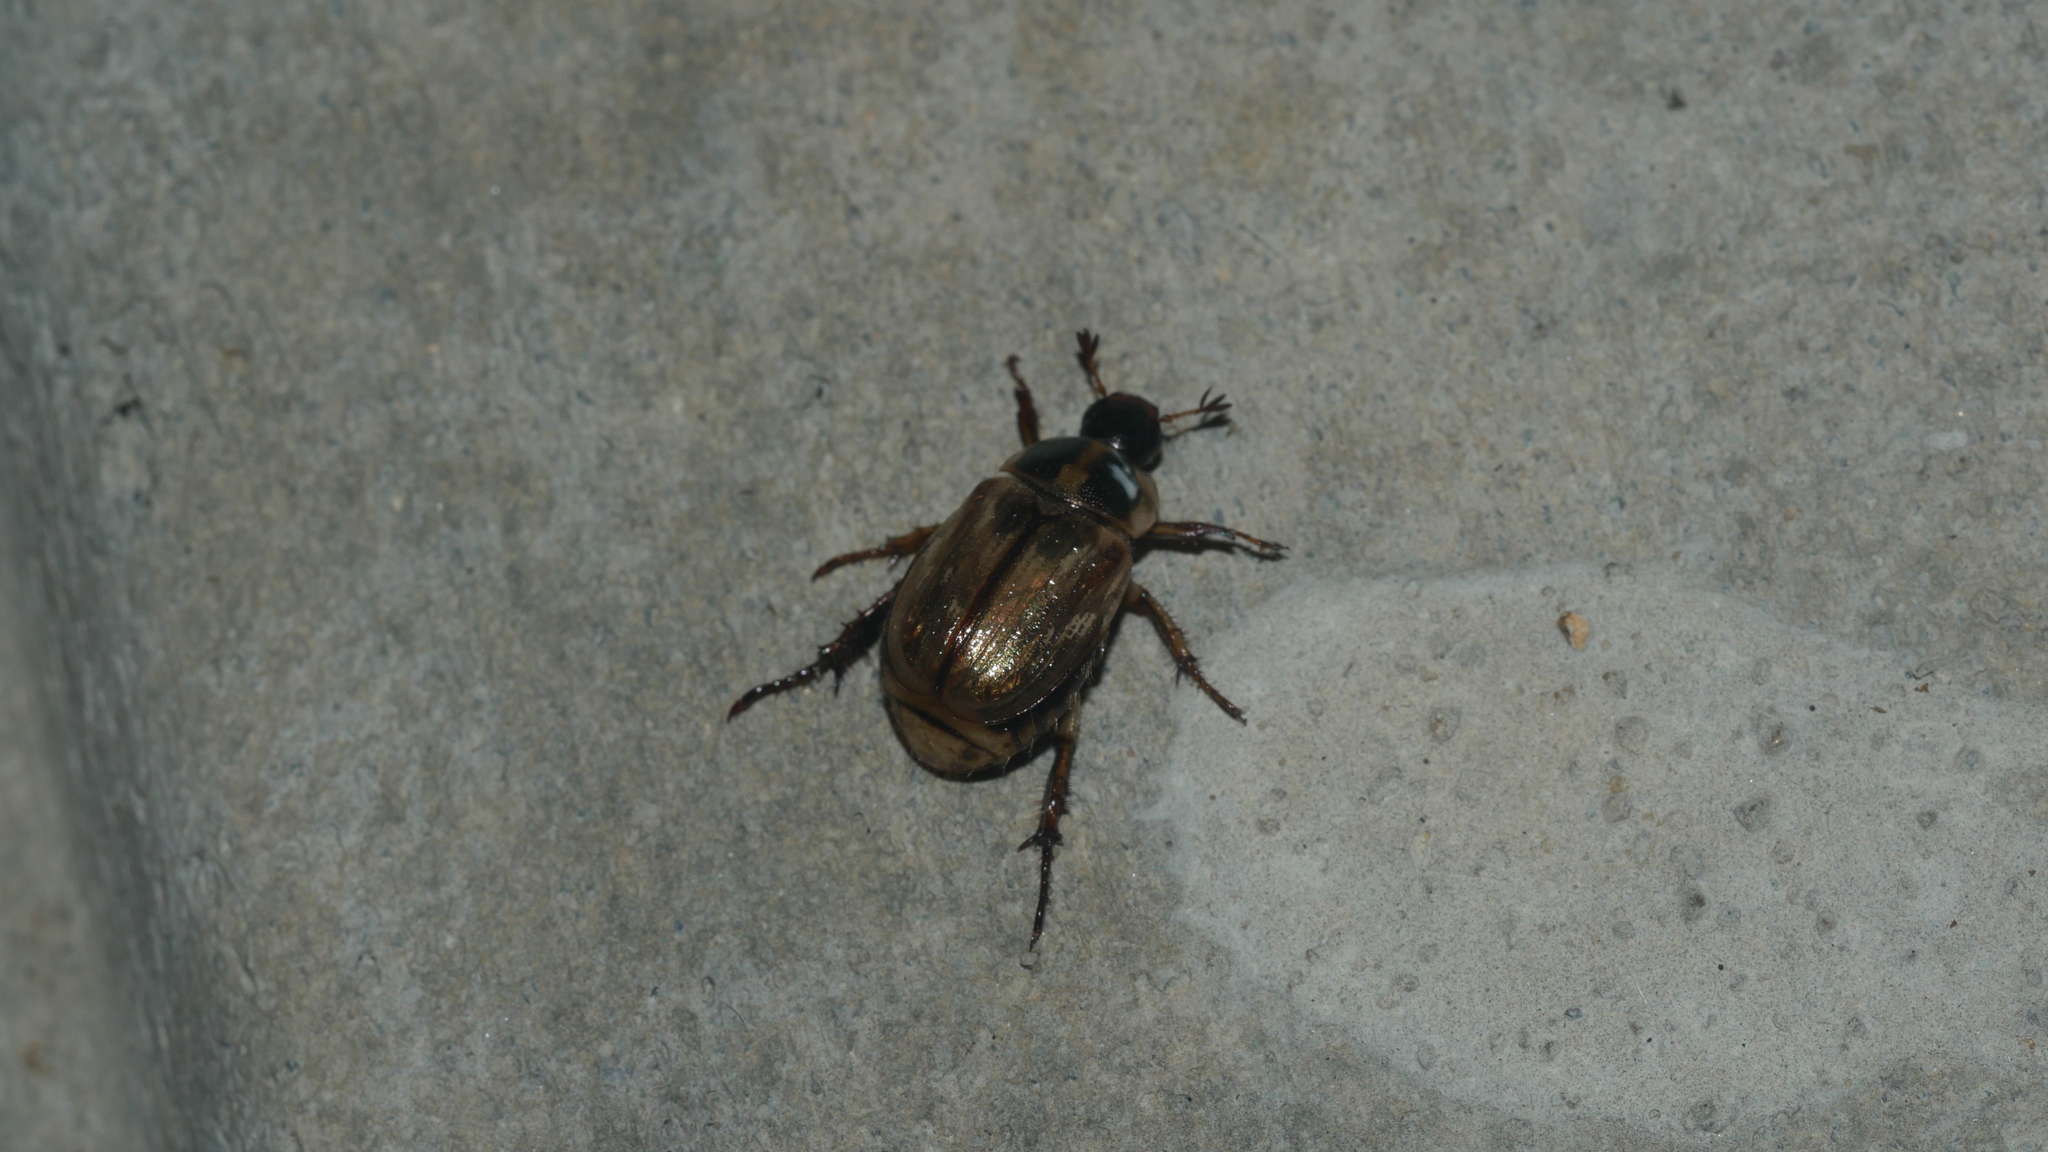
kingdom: Animalia
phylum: Arthropoda
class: Insecta
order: Coleoptera
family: Scarabaeidae
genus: Exomala
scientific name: Exomala orientalis
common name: Oriental beetle
